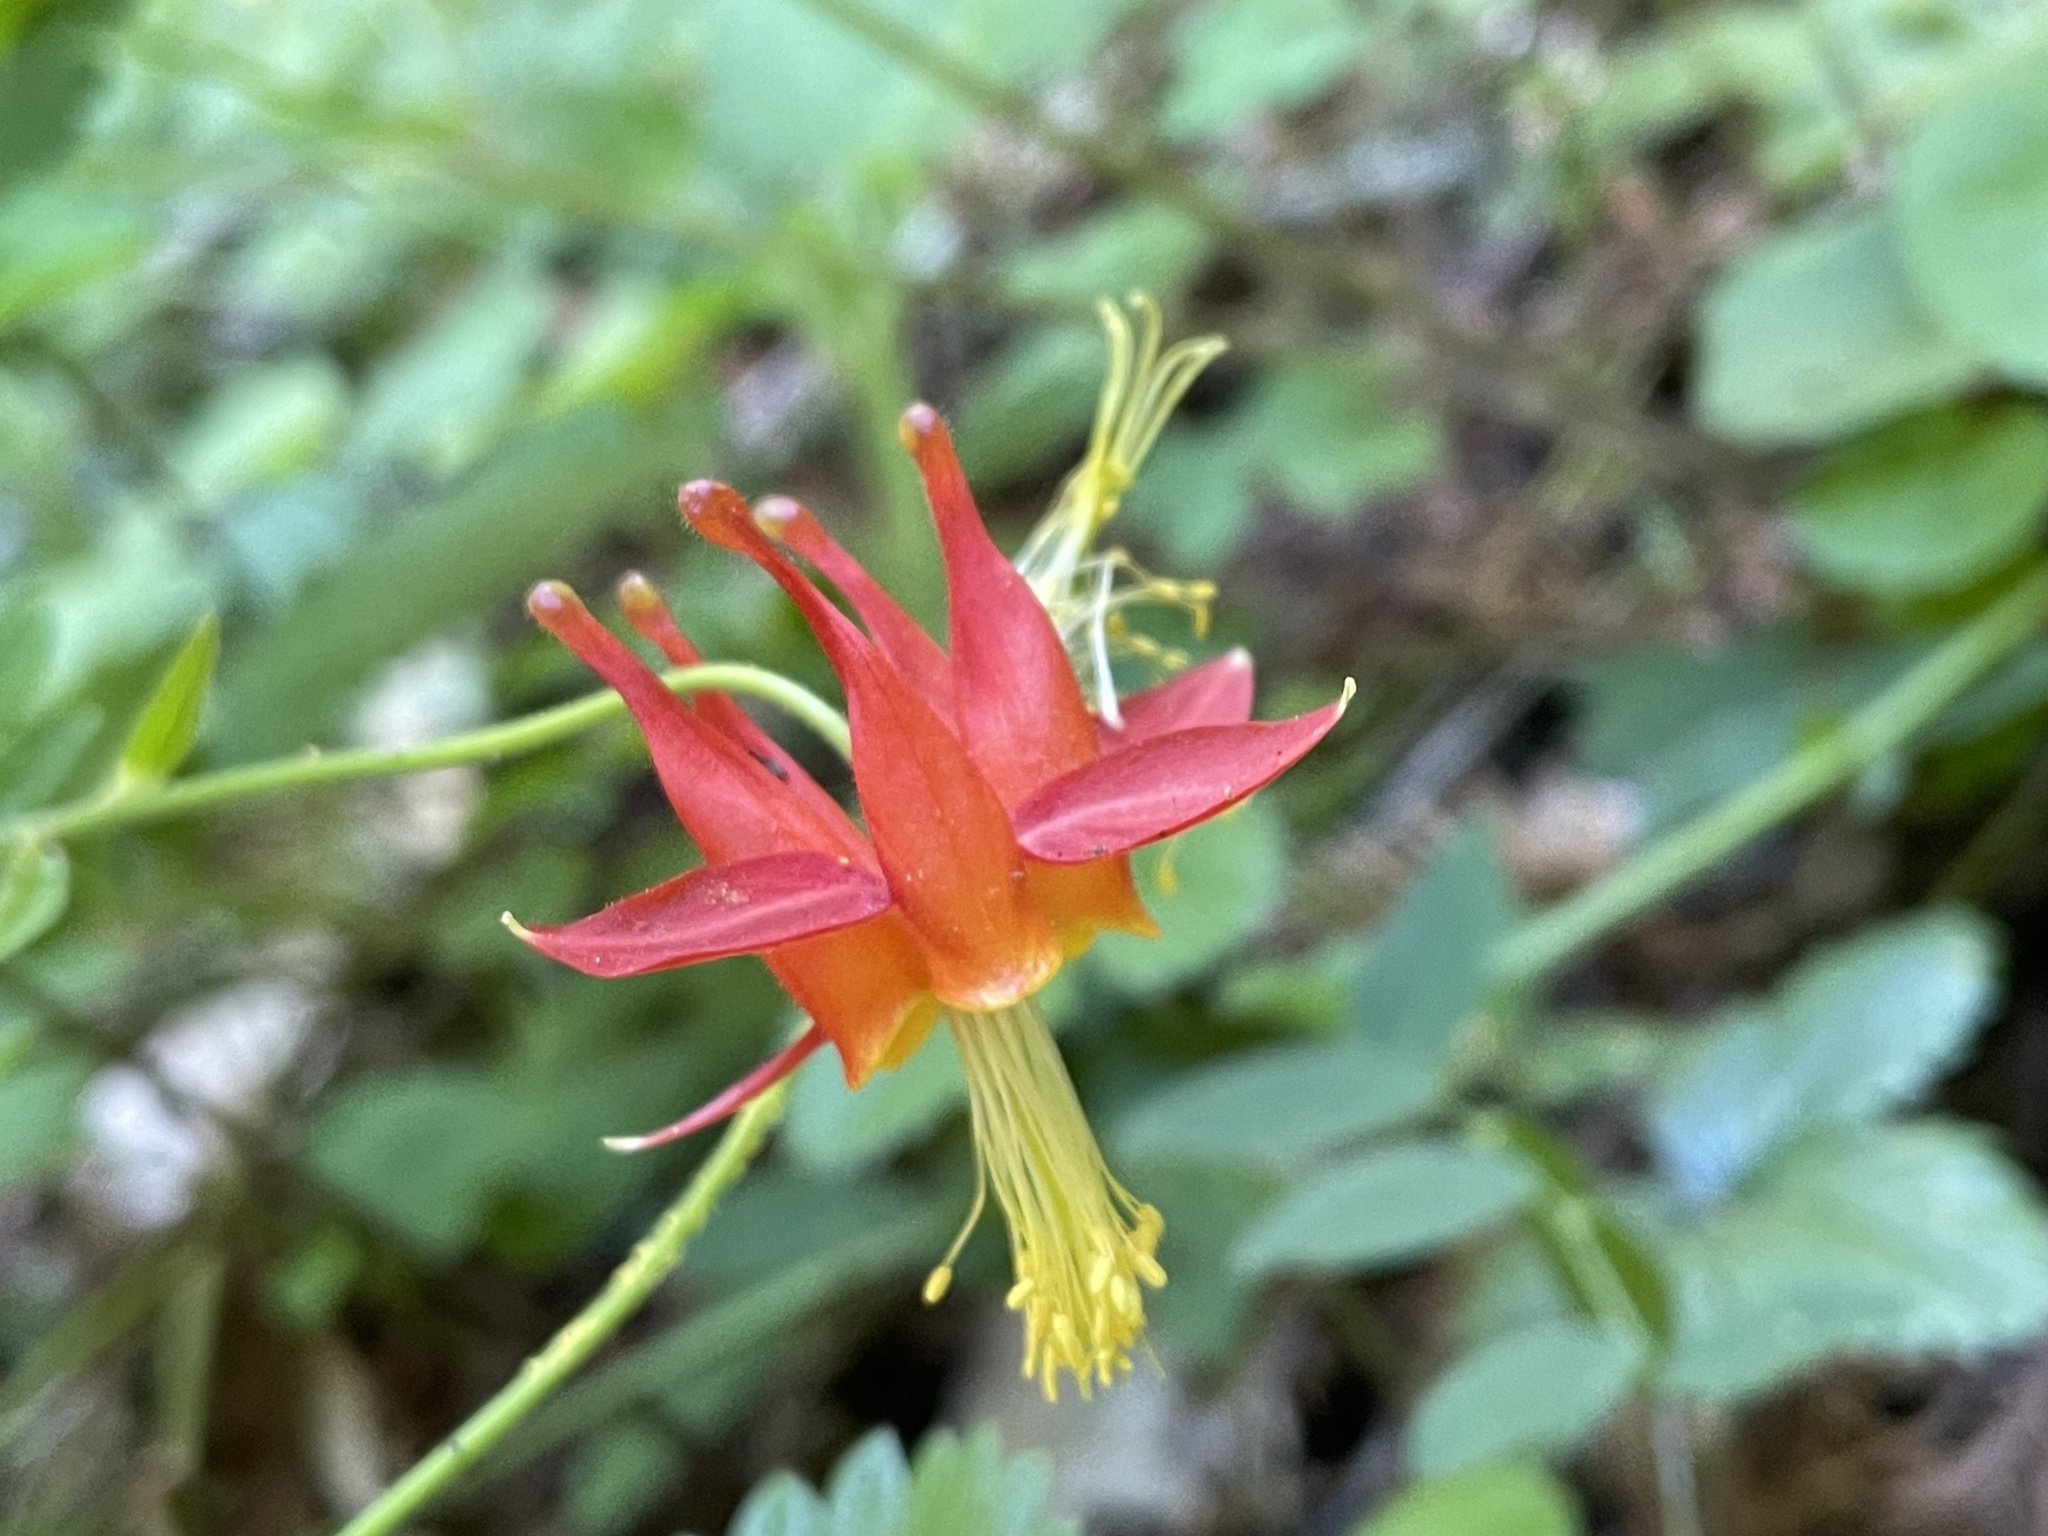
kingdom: Plantae
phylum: Tracheophyta
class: Magnoliopsida
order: Ranunculales
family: Ranunculaceae
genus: Aquilegia
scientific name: Aquilegia formosa
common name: Sitka columbine
